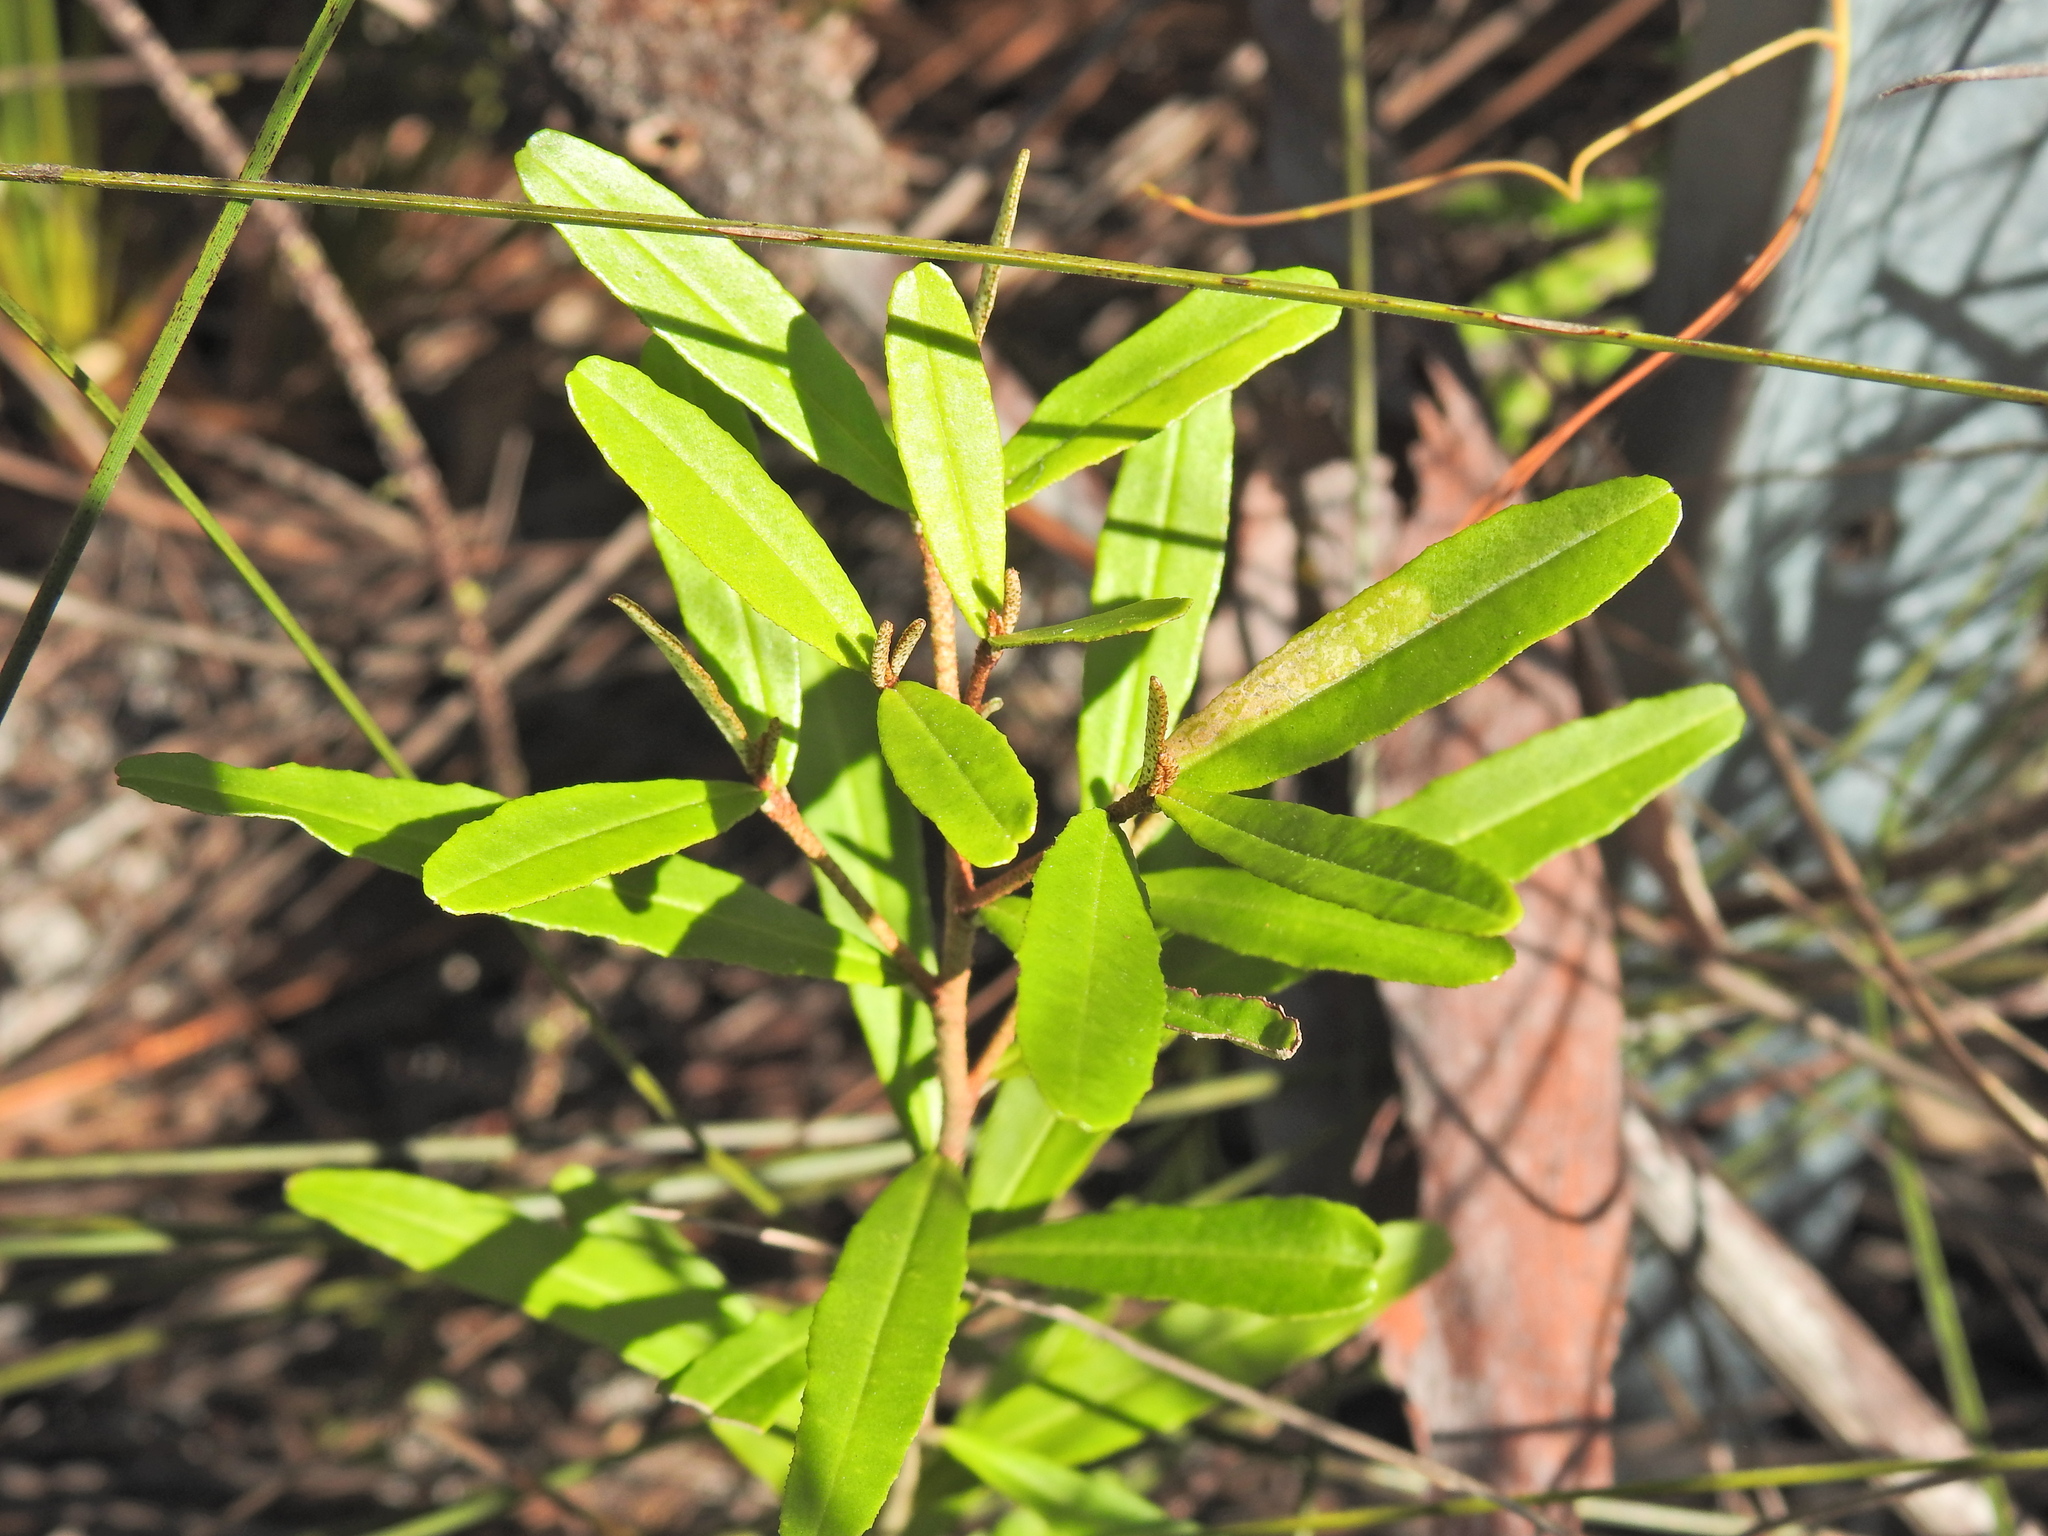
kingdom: Plantae
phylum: Tracheophyta
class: Magnoliopsida
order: Sapindales
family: Rutaceae
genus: Phebalium
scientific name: Phebalium woombye
